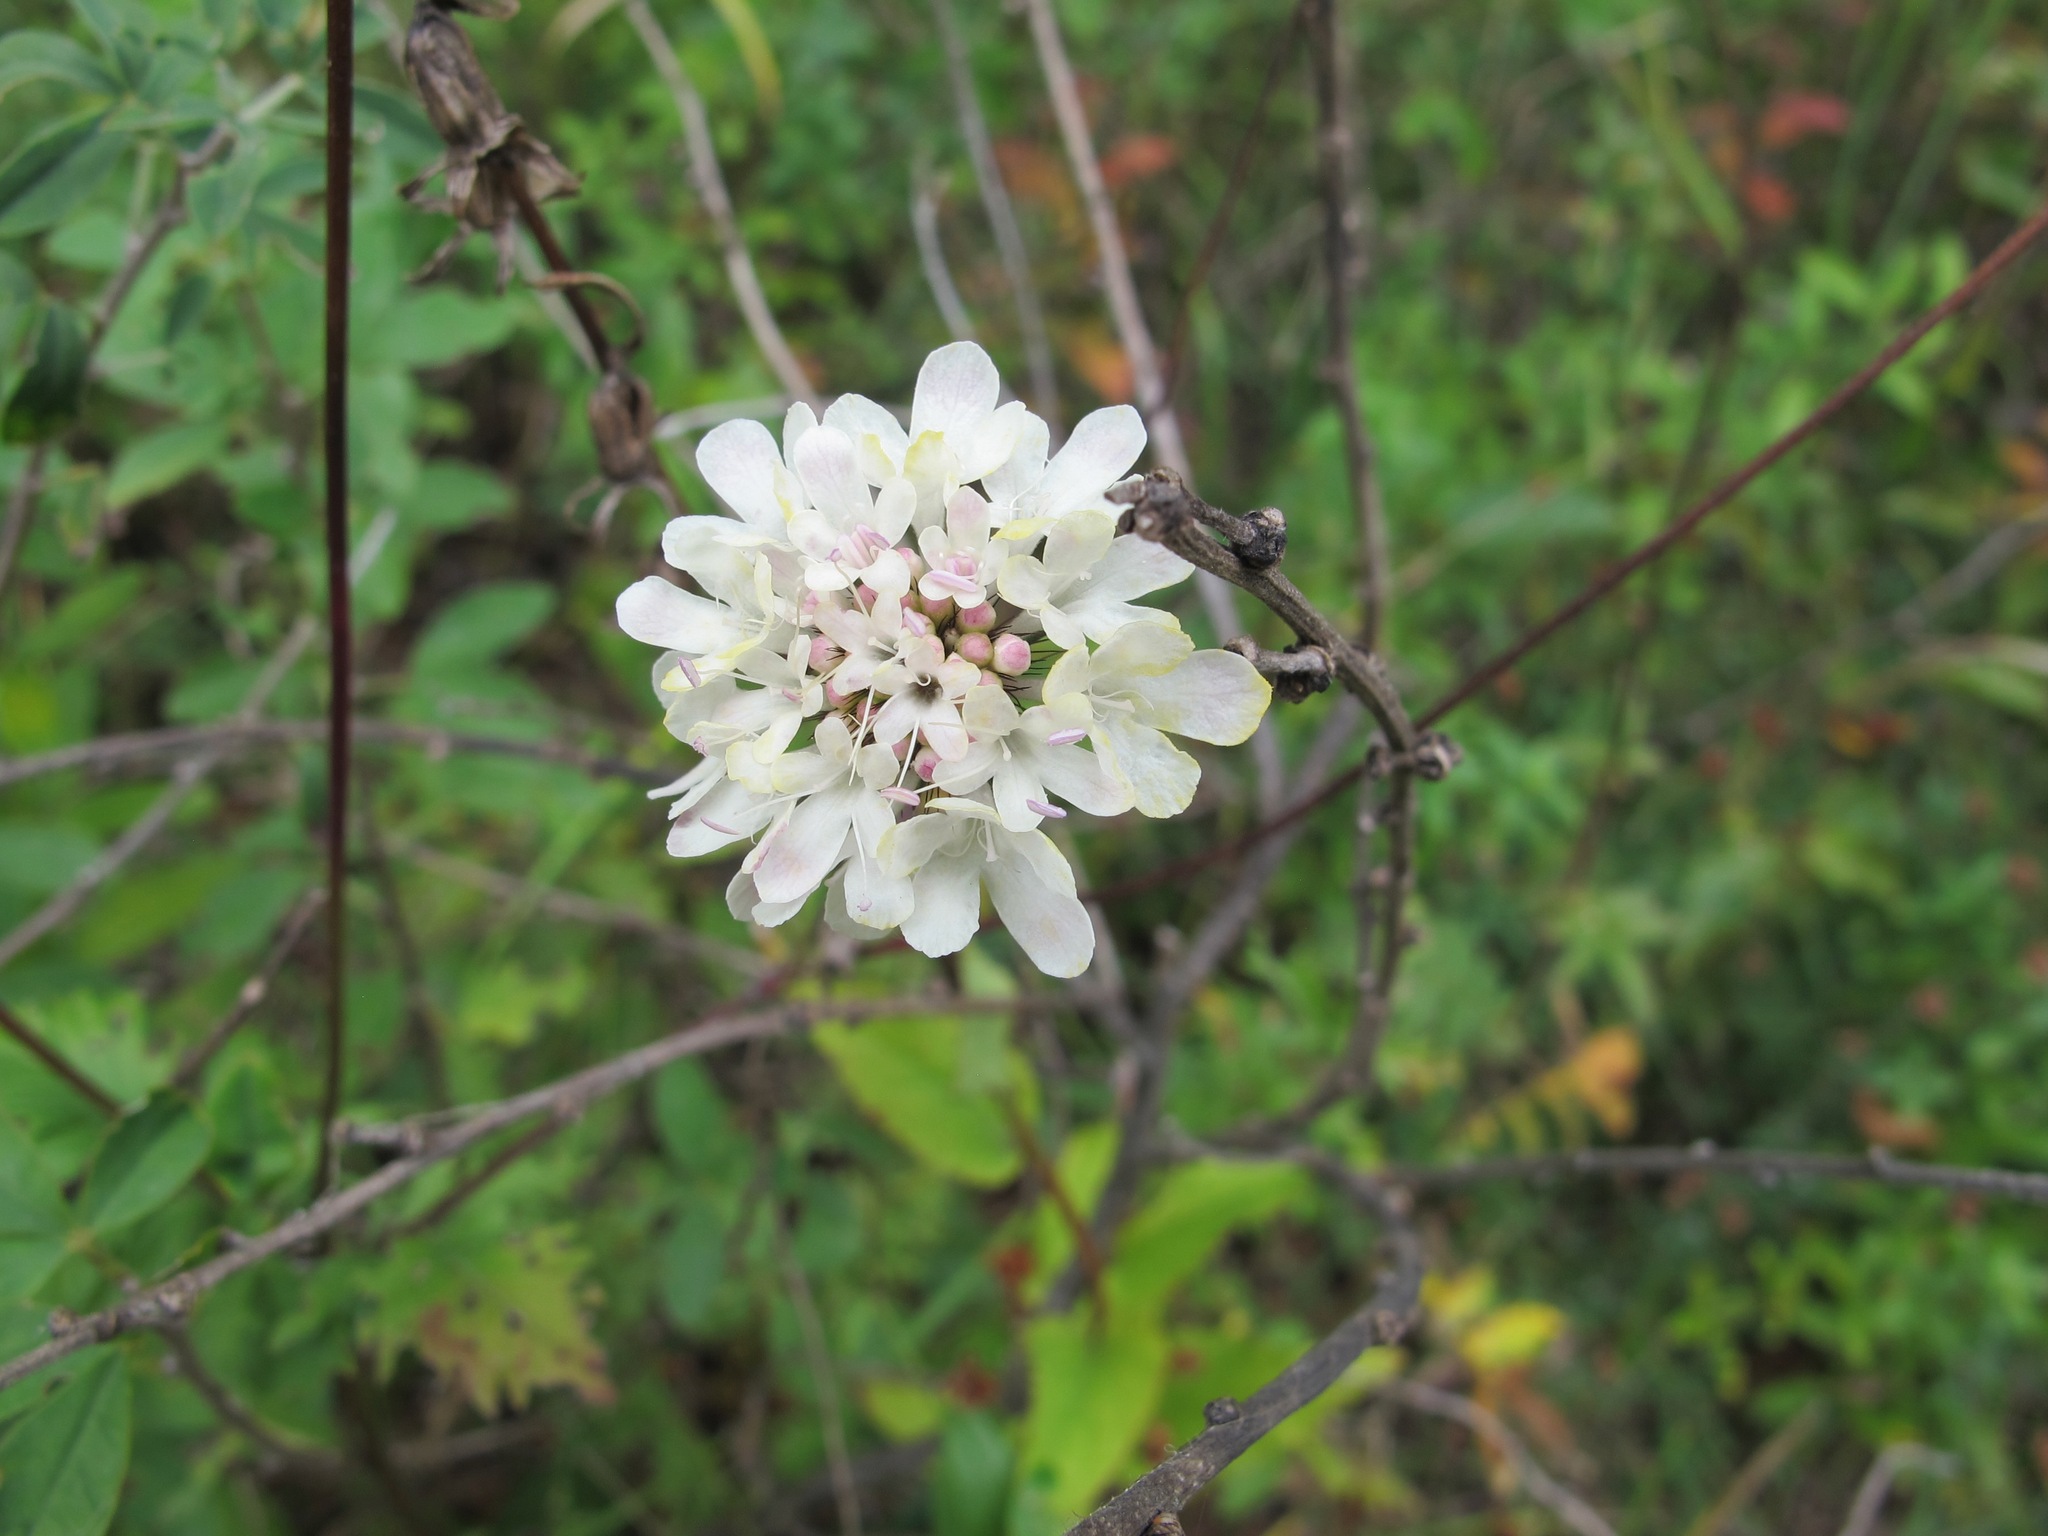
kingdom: Plantae
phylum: Tracheophyta
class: Magnoliopsida
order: Dipsacales
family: Caprifoliaceae
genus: Scabiosa
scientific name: Scabiosa ochroleuca
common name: Cream pincushions
